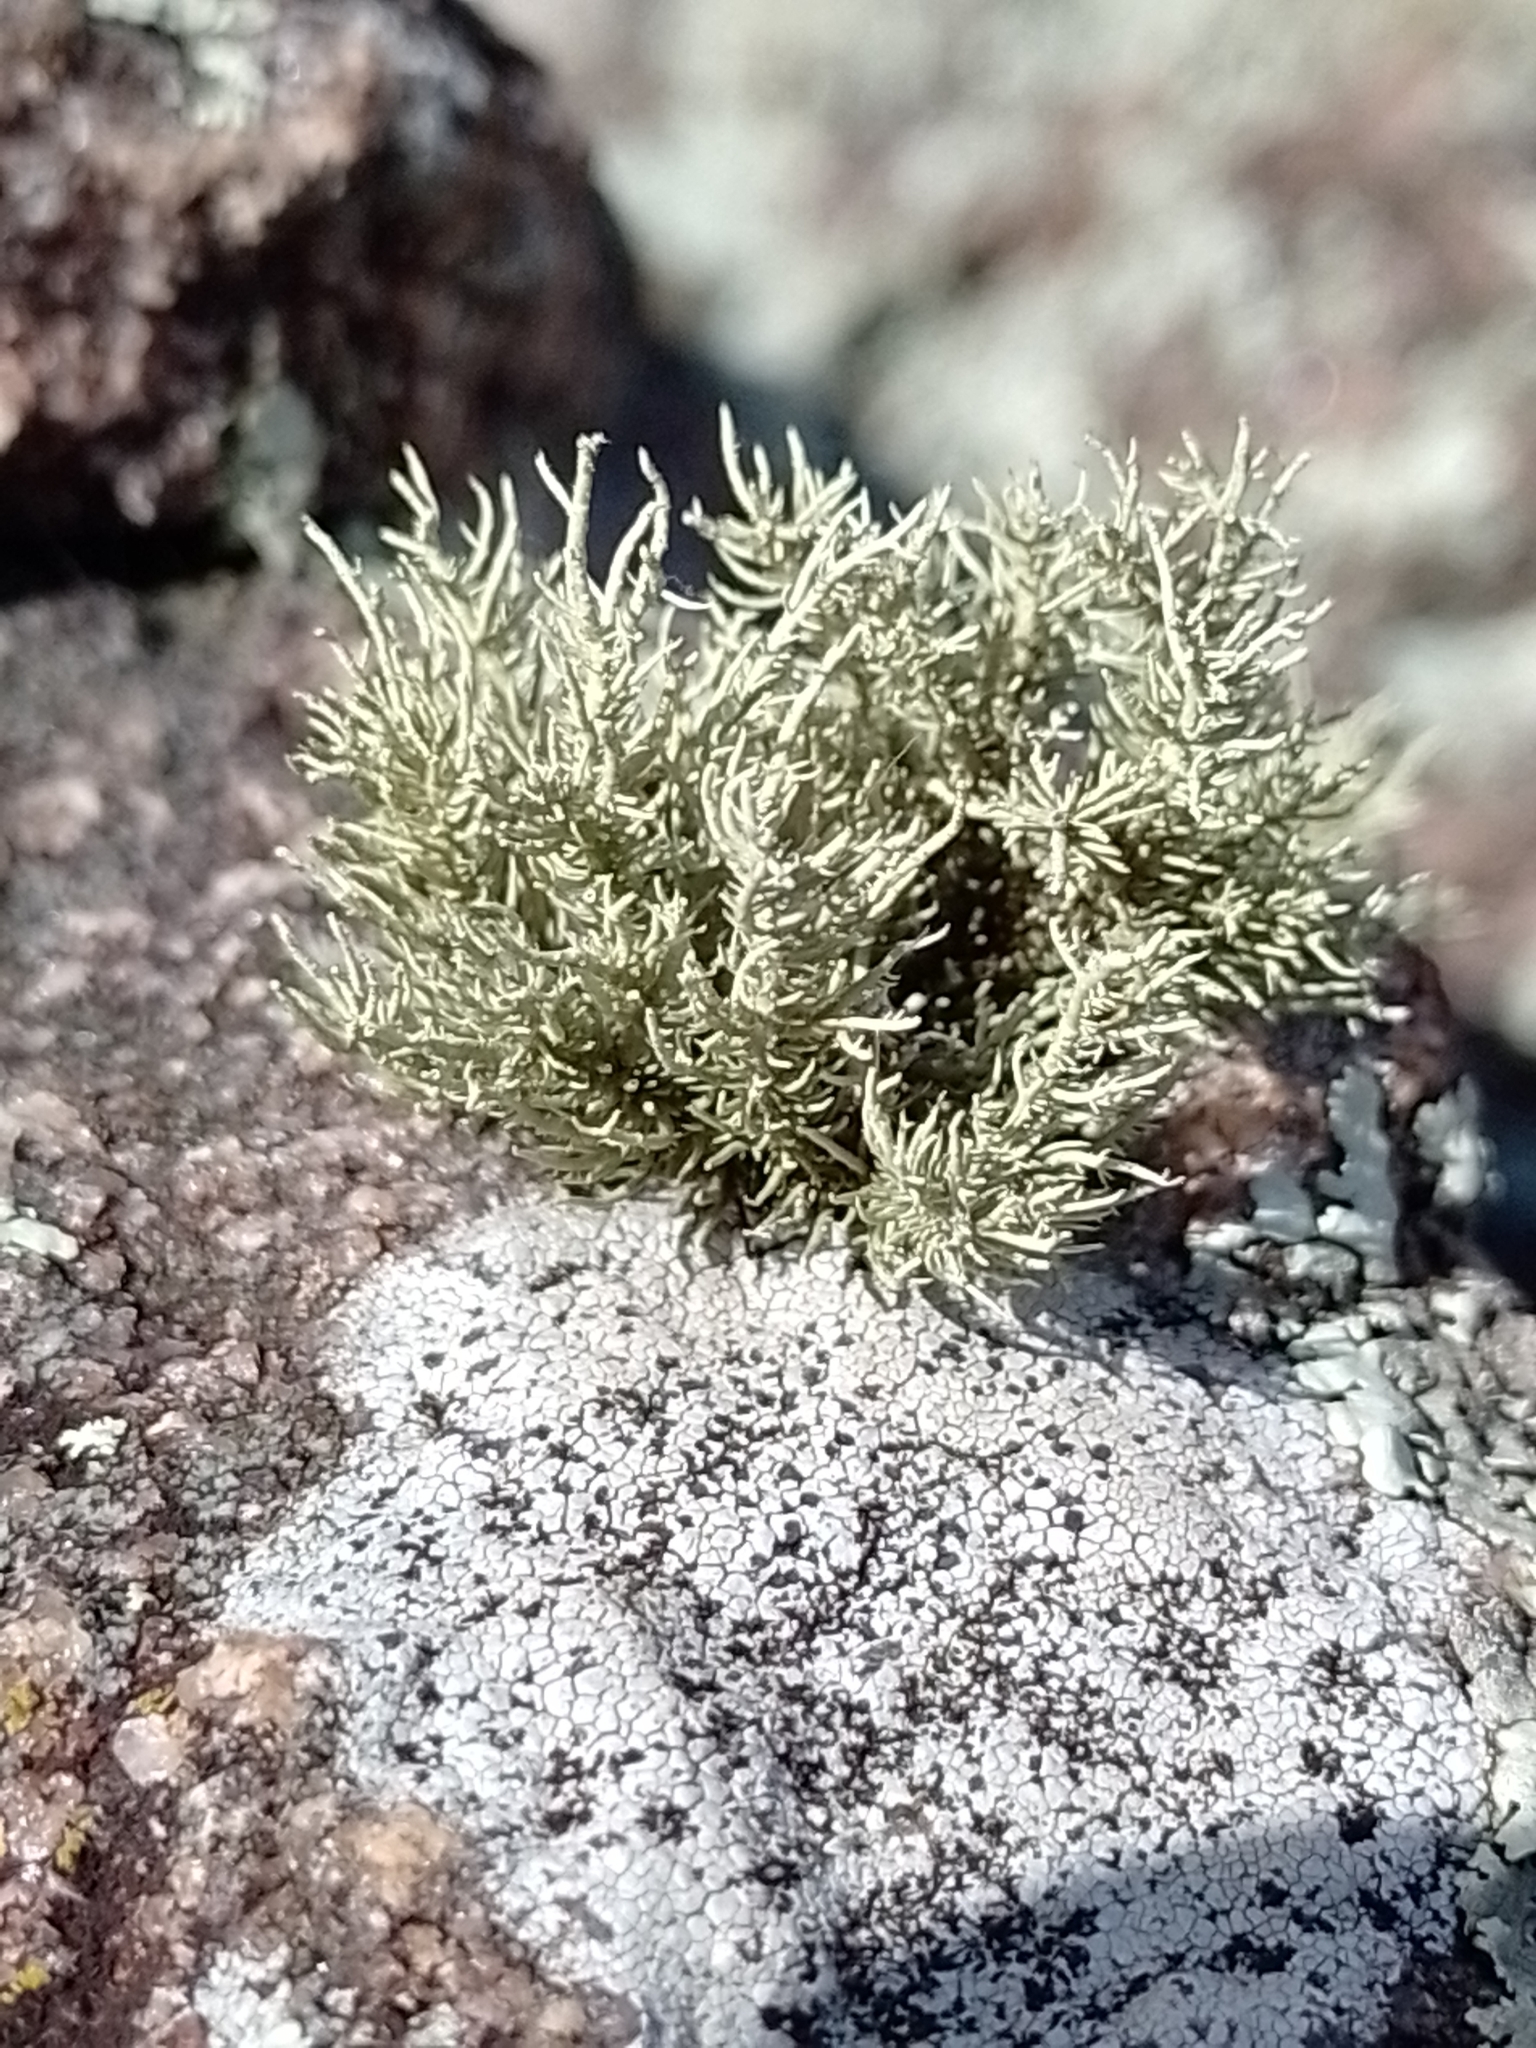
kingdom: Fungi
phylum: Ascomycota
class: Lecanoromycetes
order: Lecanorales
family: Parmeliaceae
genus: Usnea
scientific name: Usnea amblyoclada
